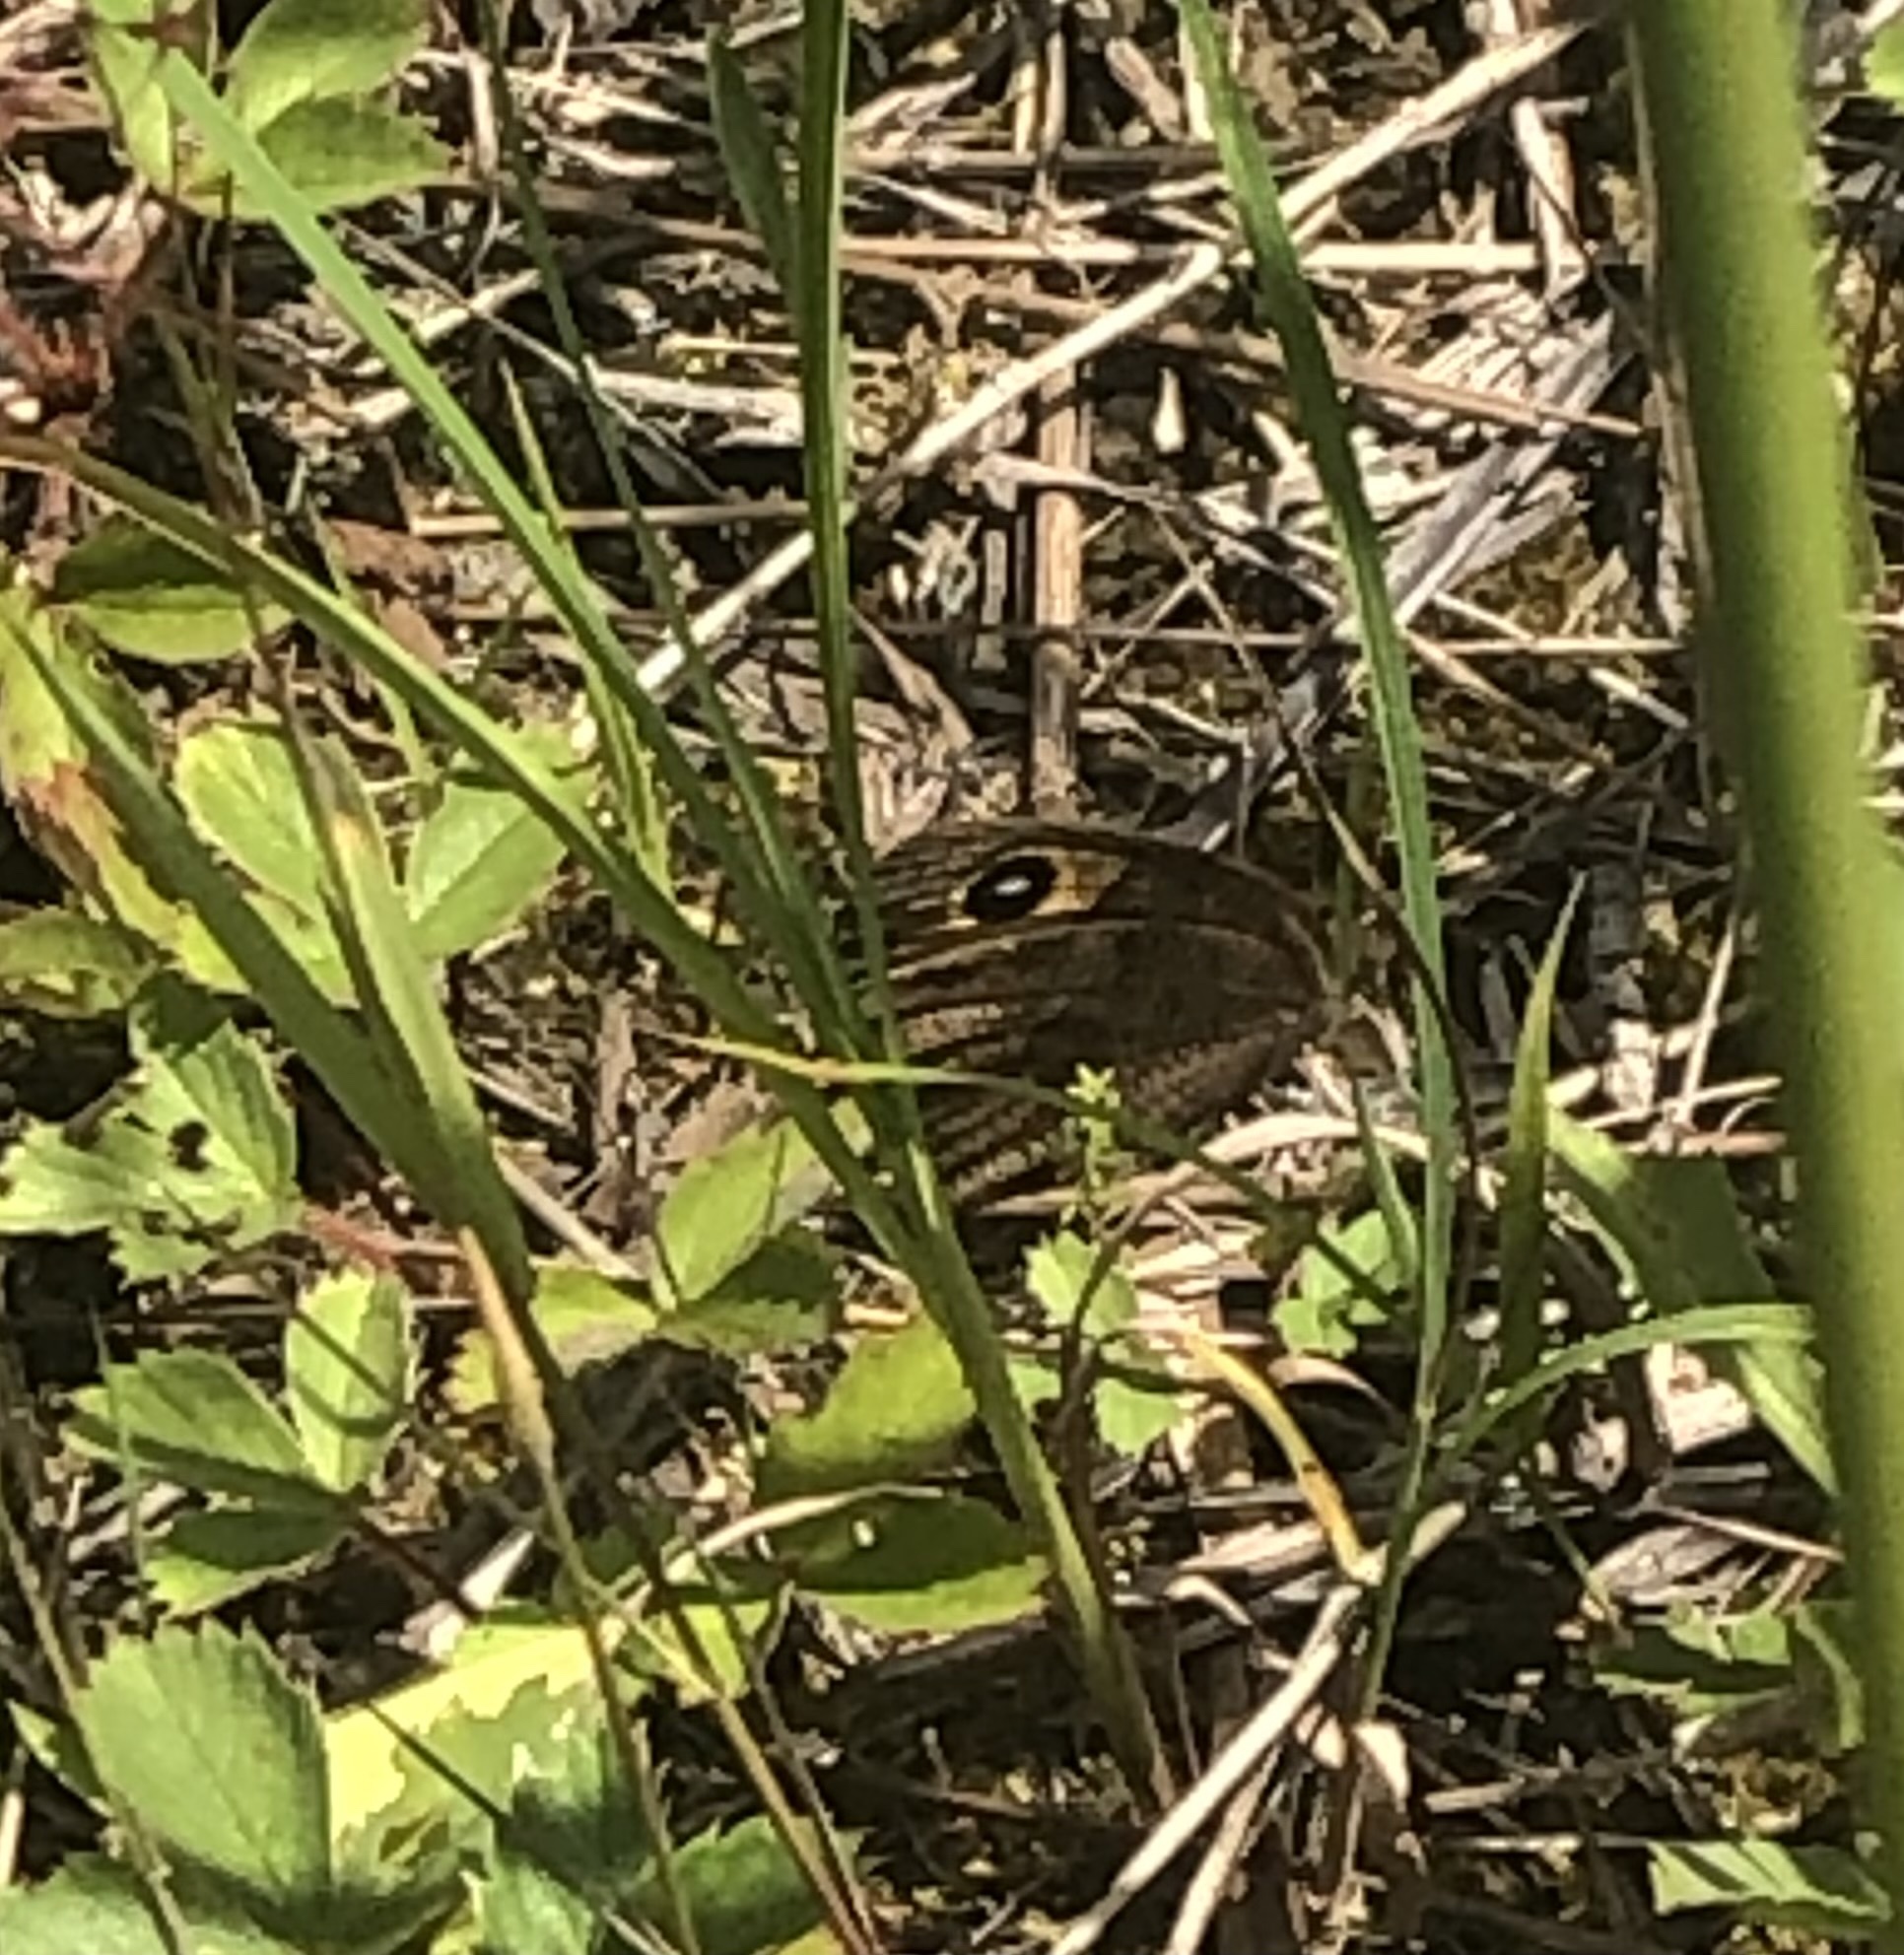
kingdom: Animalia
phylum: Arthropoda
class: Insecta
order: Lepidoptera
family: Nymphalidae
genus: Cercyonis
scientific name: Cercyonis pegala
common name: Common wood-nymph
